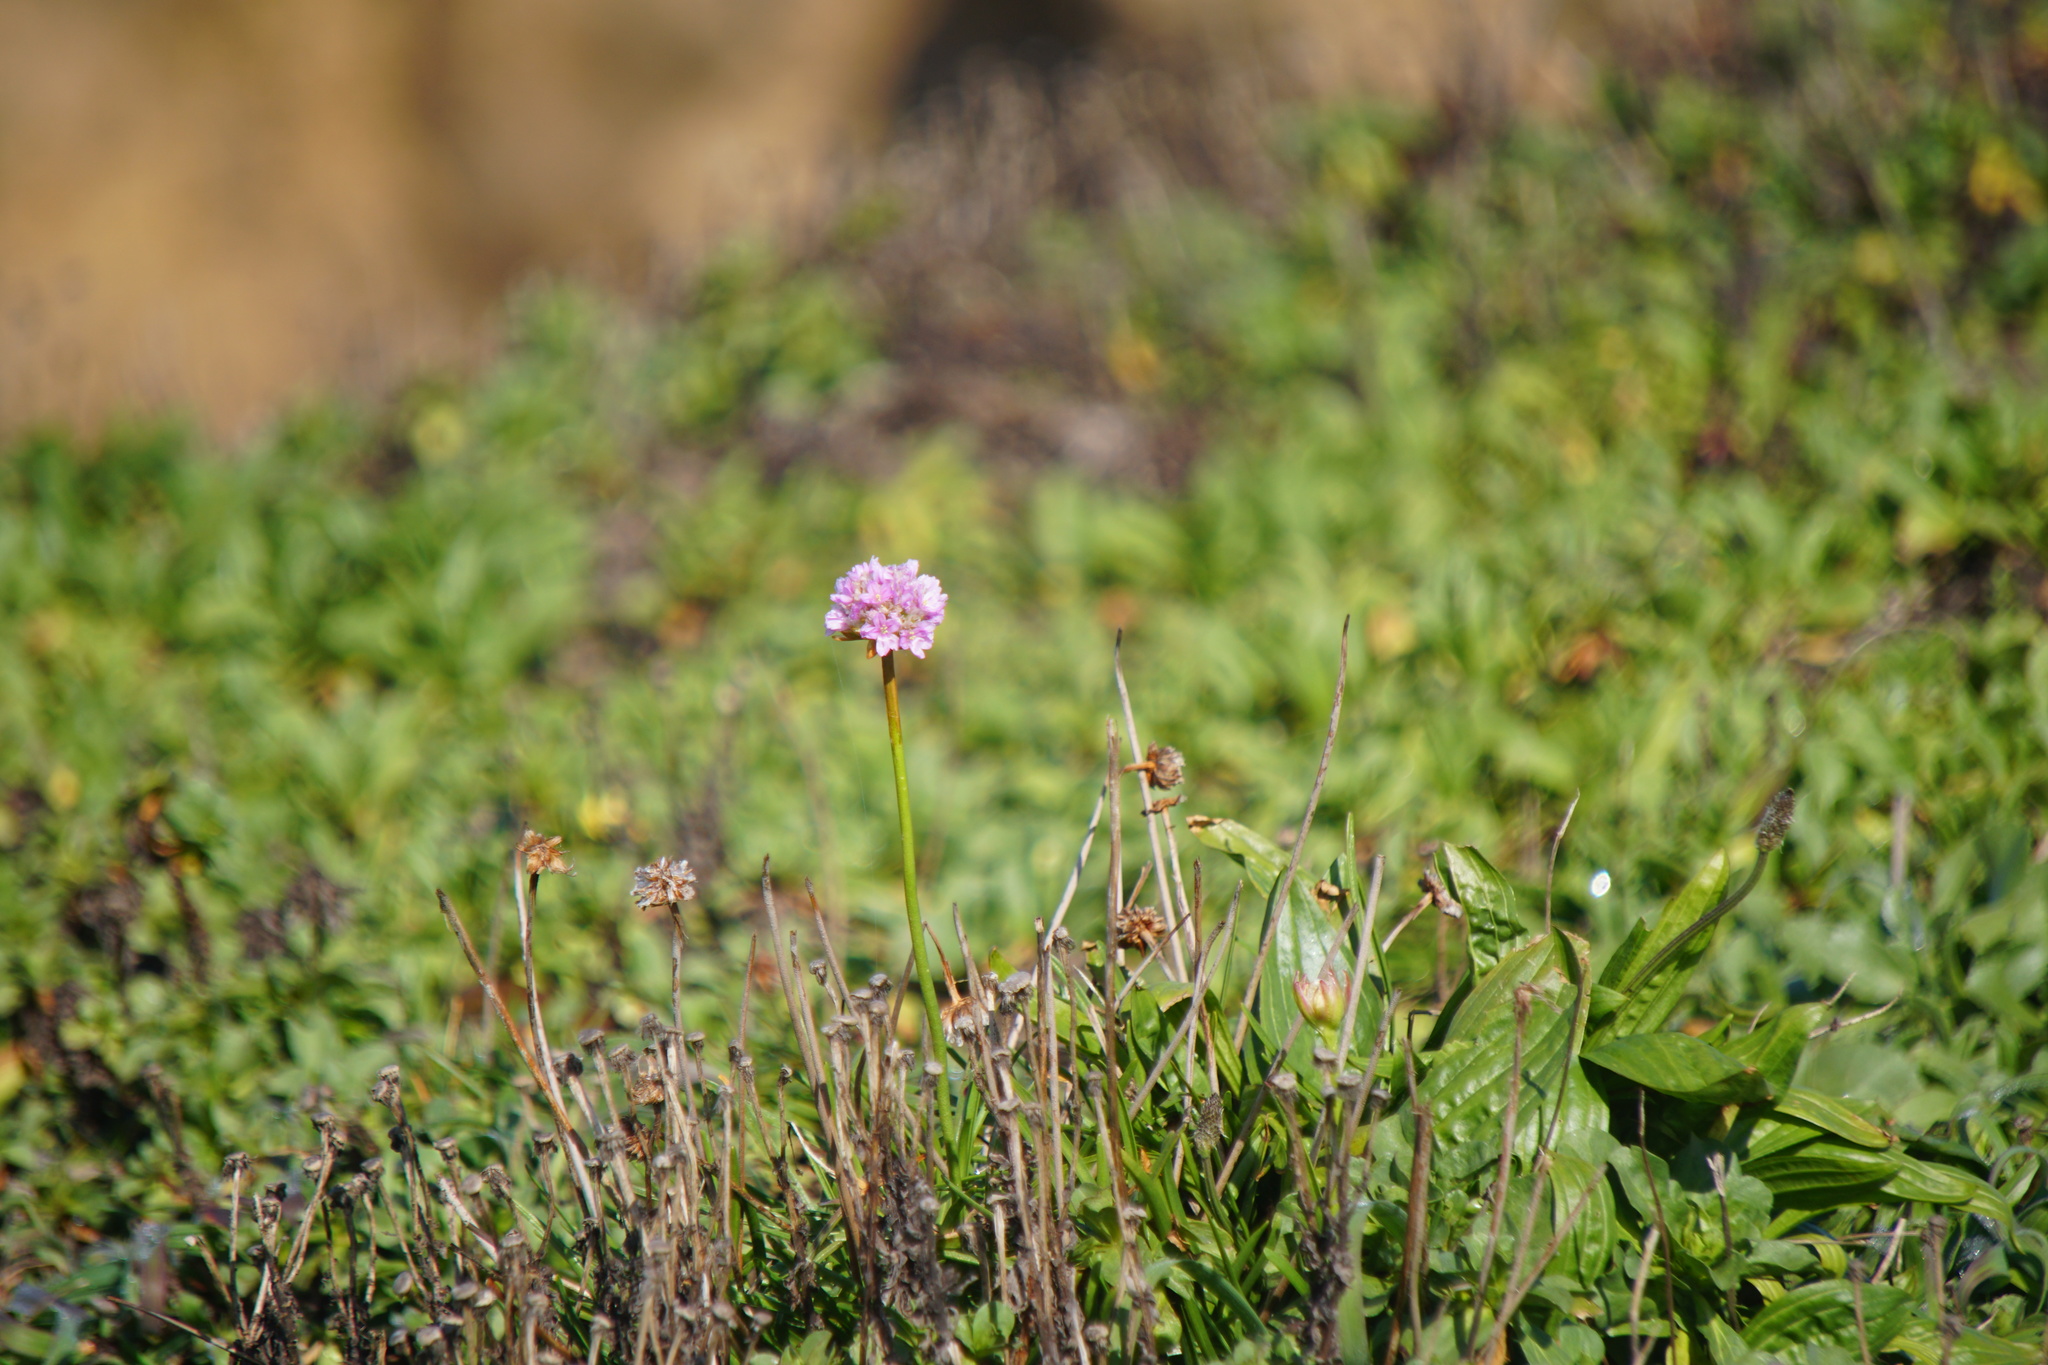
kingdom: Plantae
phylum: Tracheophyta
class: Magnoliopsida
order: Caryophyllales
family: Plumbaginaceae
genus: Armeria
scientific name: Armeria maritima
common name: Thrift
